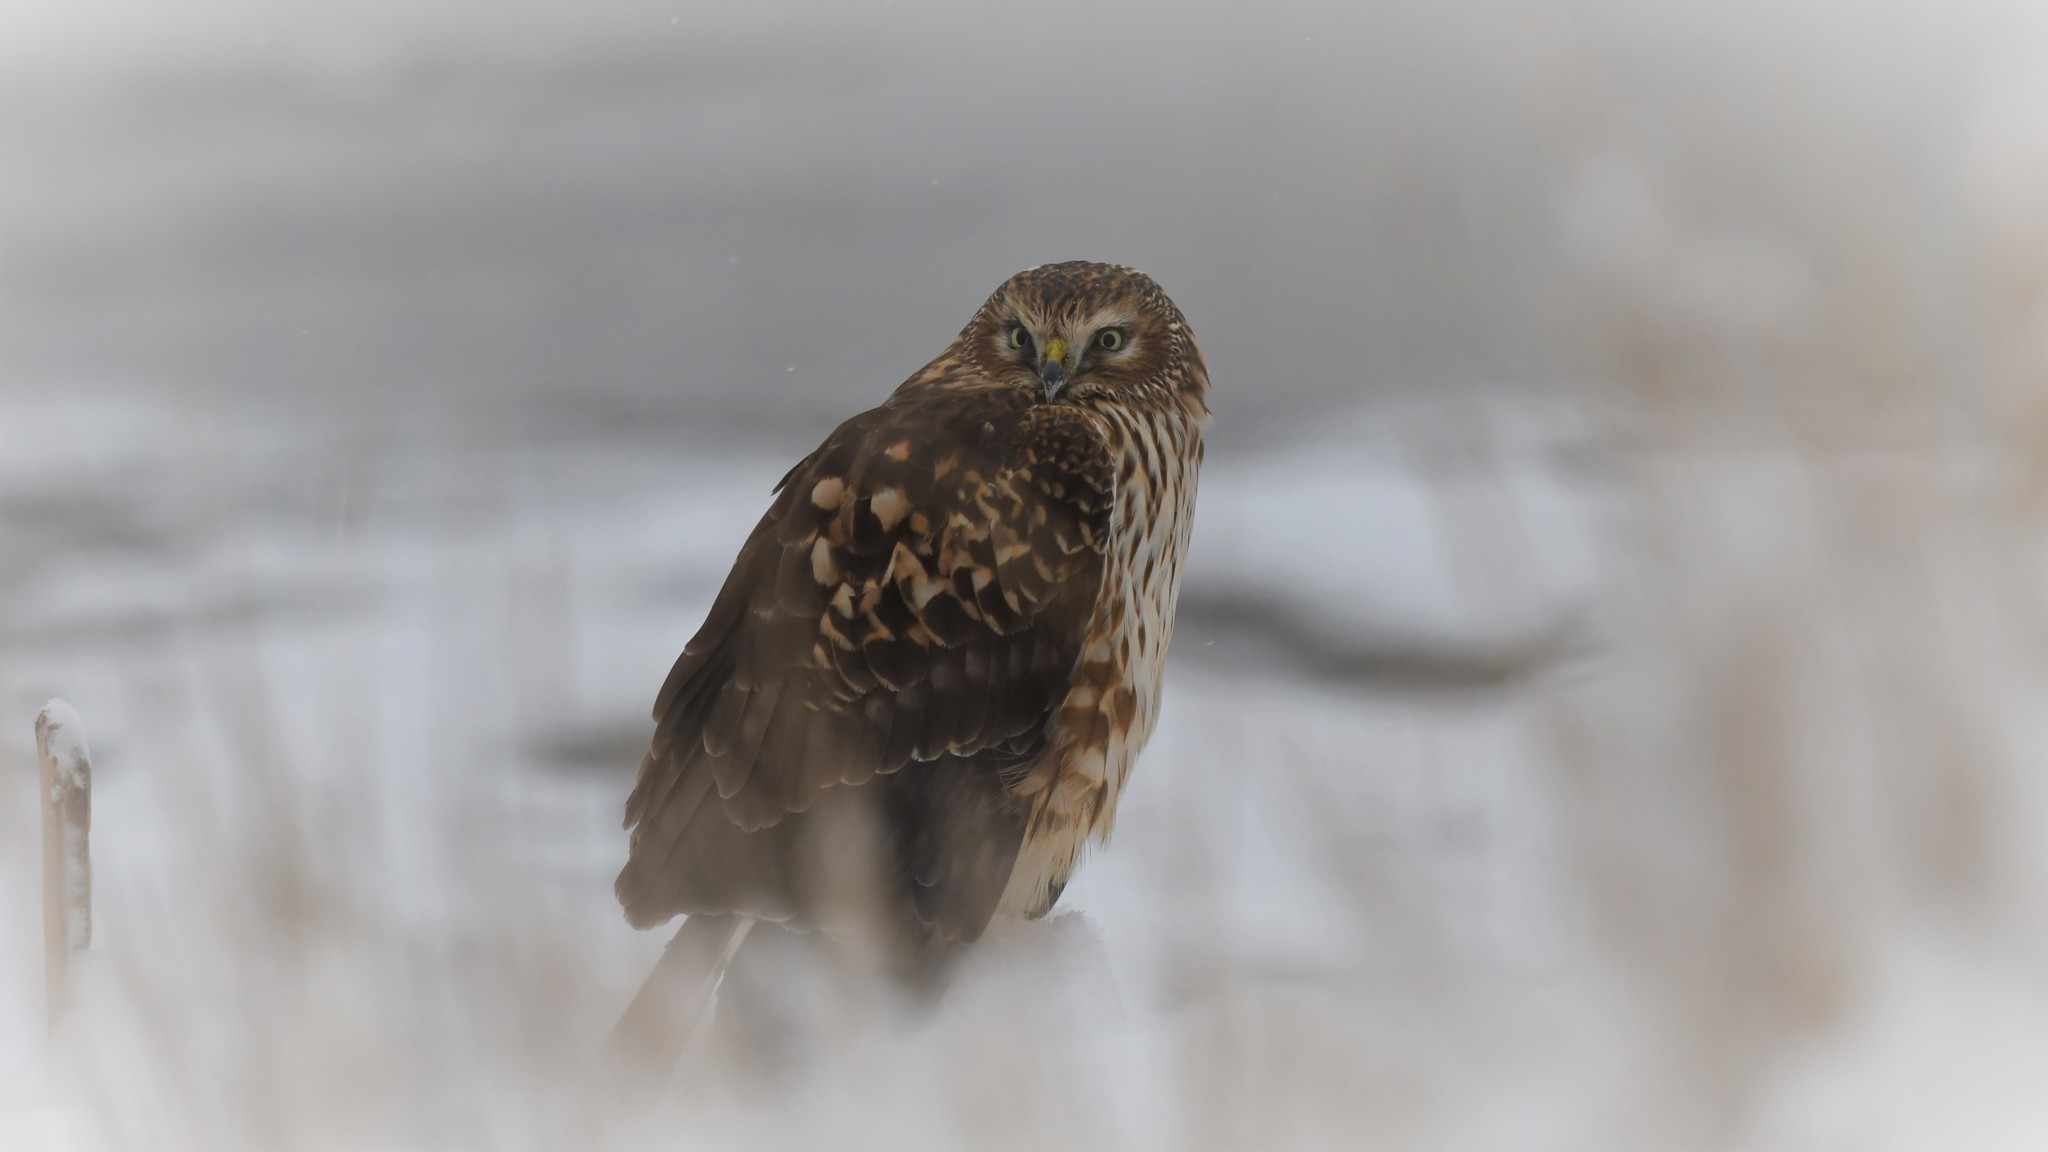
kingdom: Animalia
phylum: Chordata
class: Aves
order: Accipitriformes
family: Accipitridae
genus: Circus
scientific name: Circus cyaneus
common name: Hen harrier
